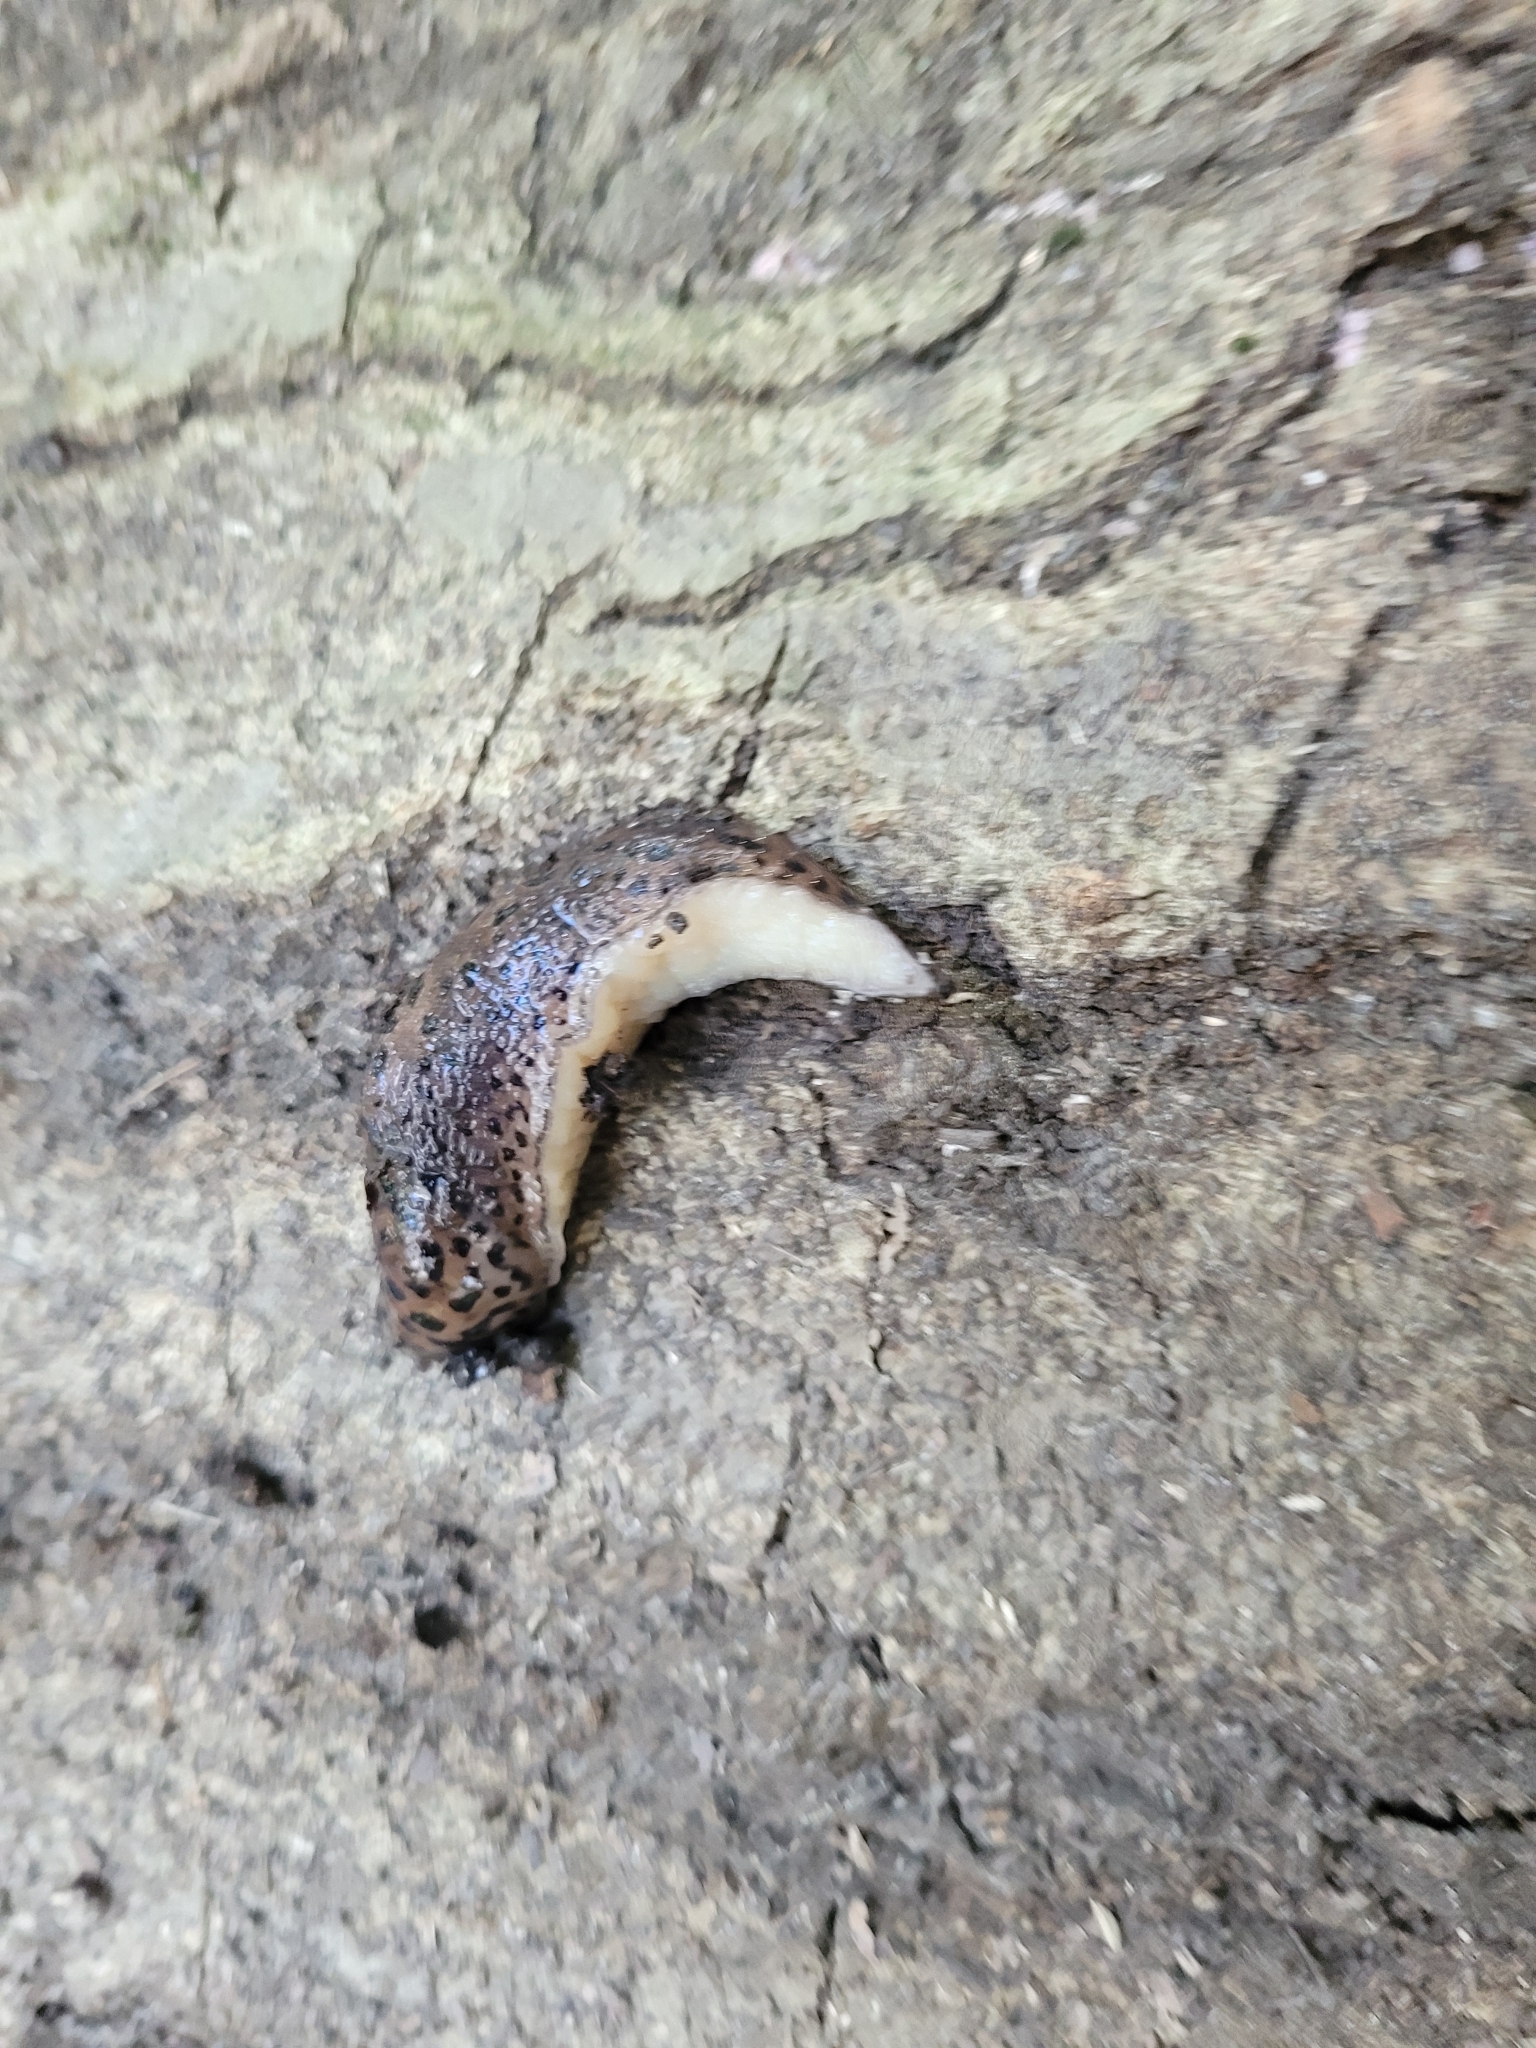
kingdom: Animalia
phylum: Mollusca
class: Gastropoda
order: Stylommatophora
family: Limacidae
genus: Limax
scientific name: Limax maximus
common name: Great grey slug
